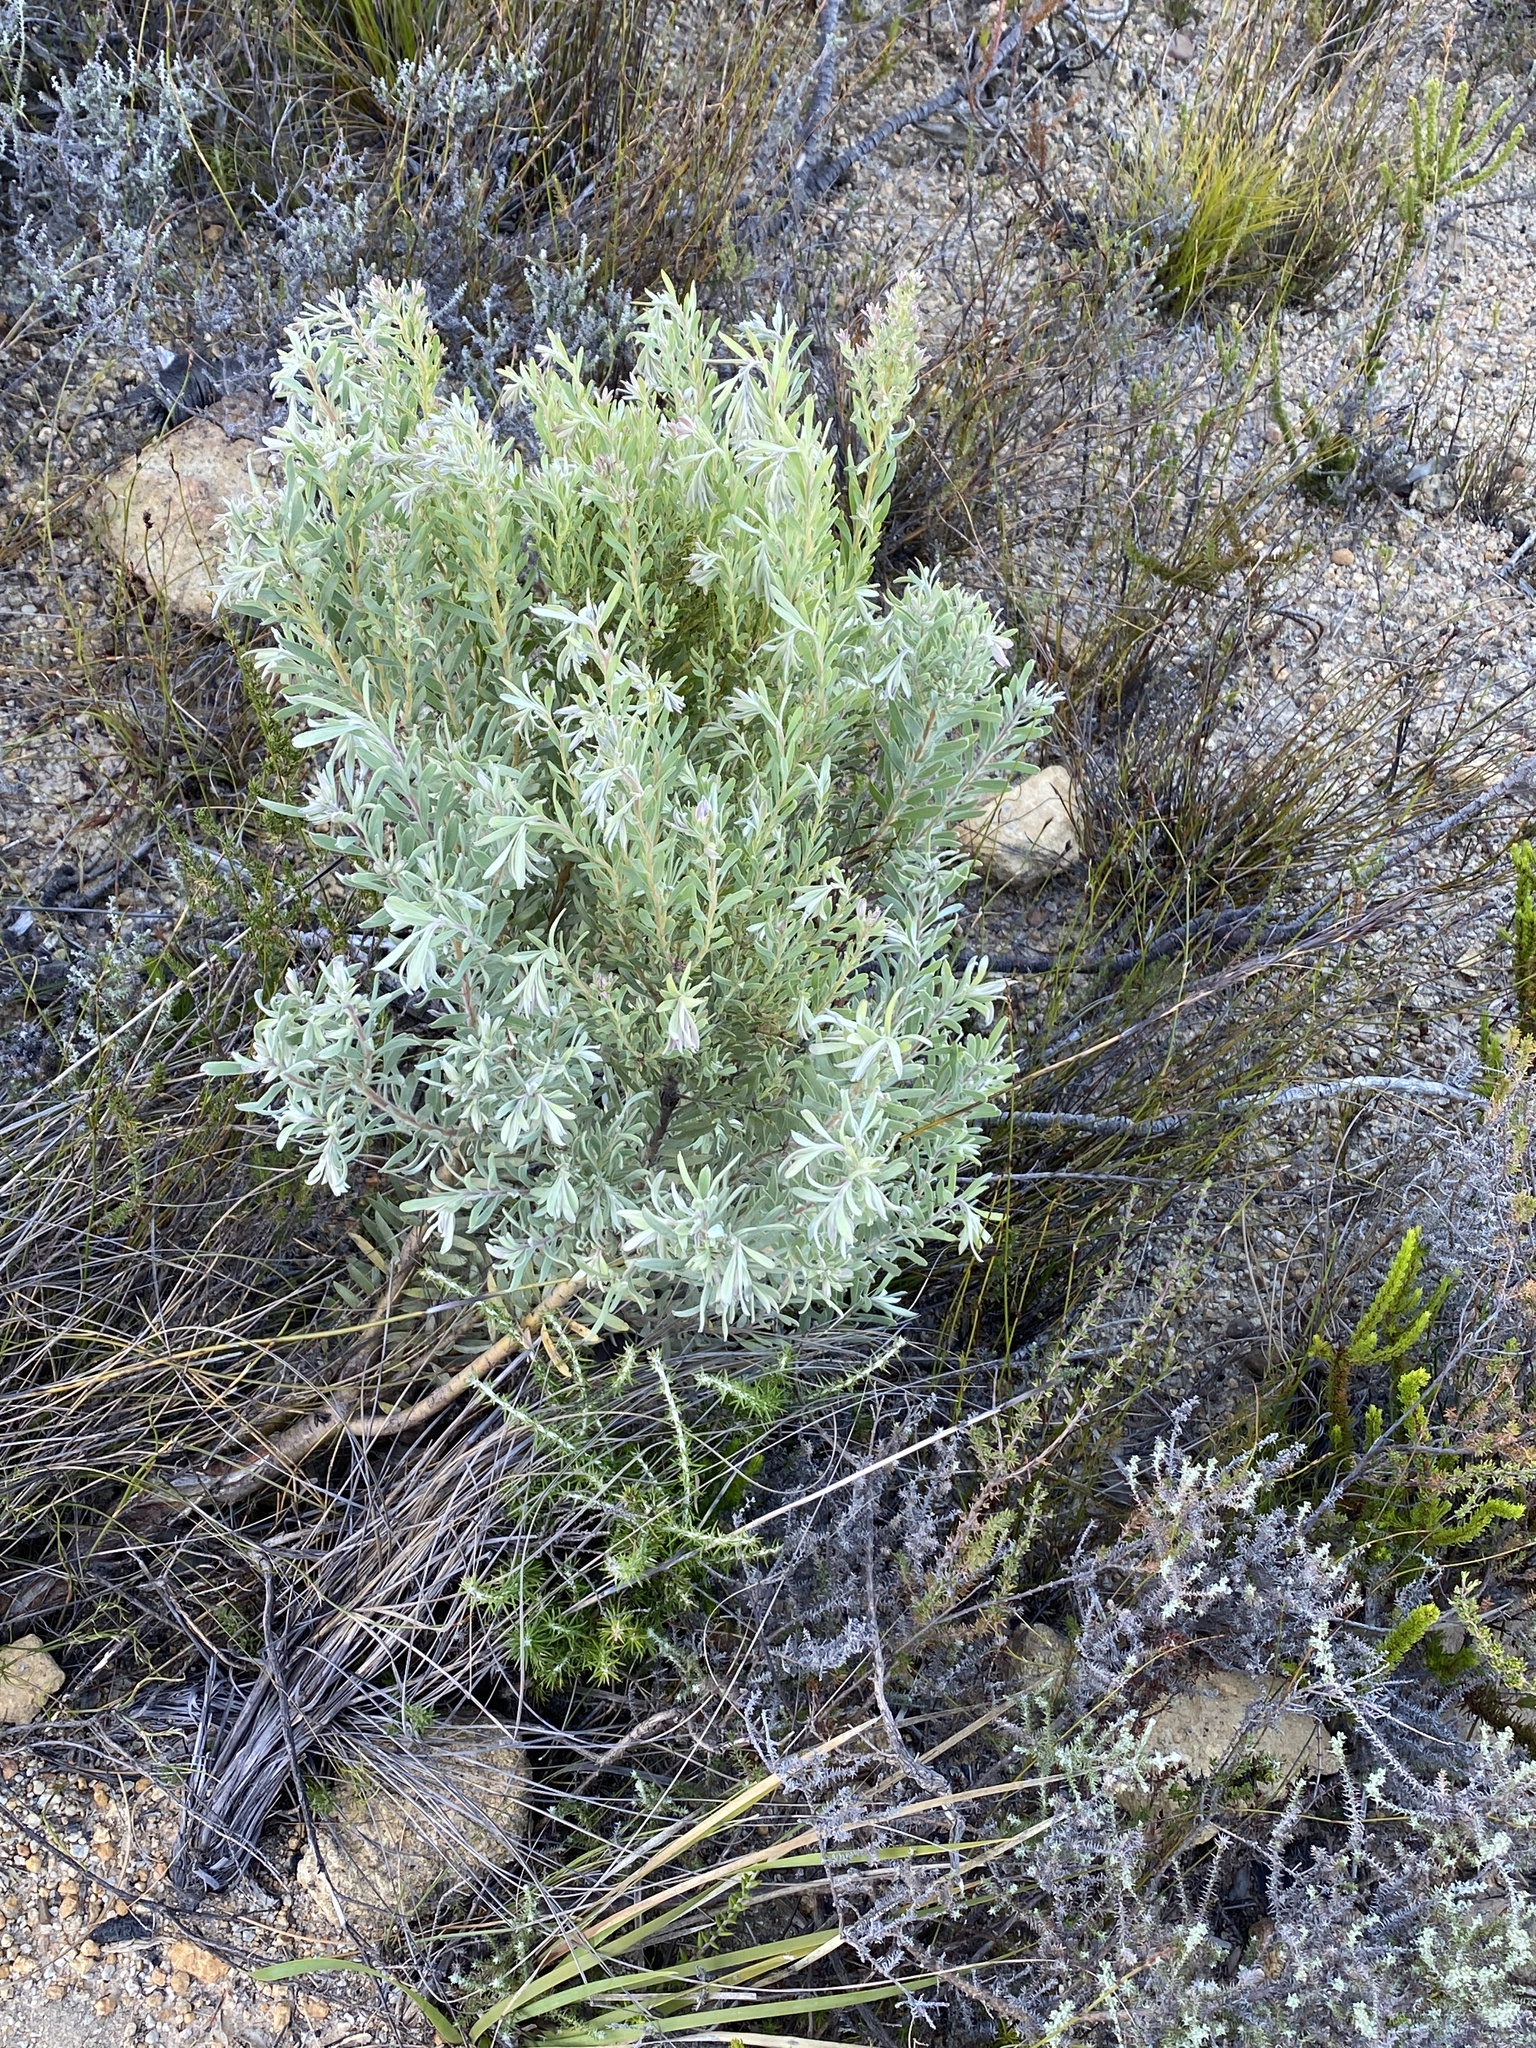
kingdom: Plantae
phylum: Tracheophyta
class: Magnoliopsida
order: Proteales
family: Proteaceae
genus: Leucadendron
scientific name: Leucadendron rubrum
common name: Spinning top
